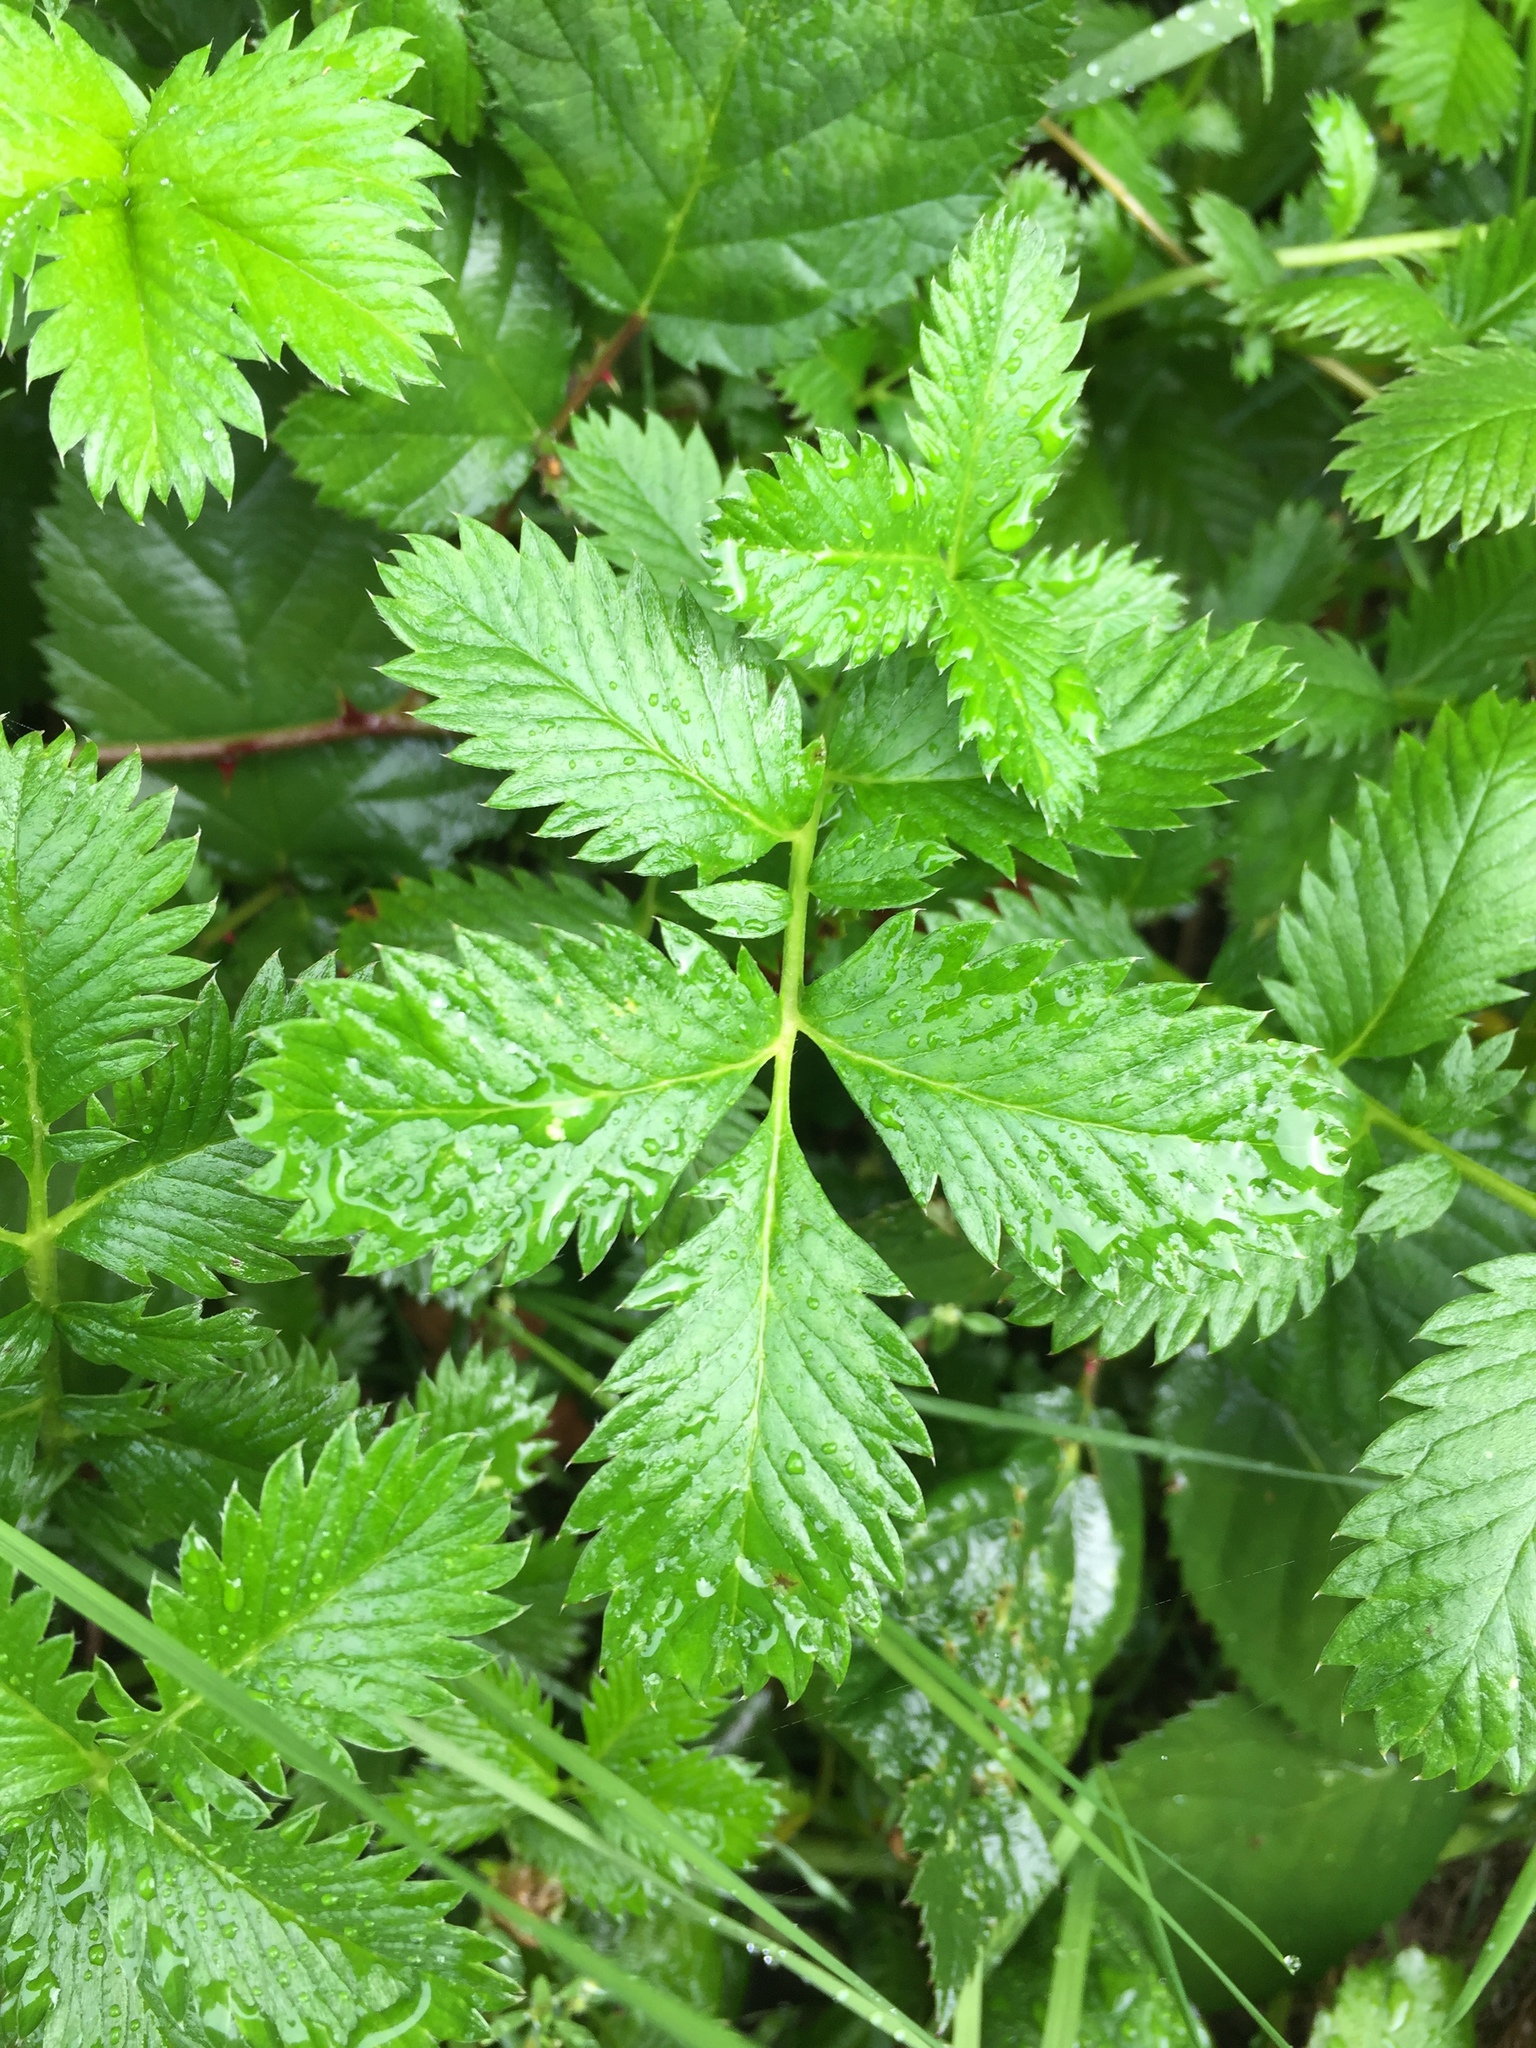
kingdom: Plantae
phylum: Tracheophyta
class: Magnoliopsida
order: Rosales
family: Rosaceae
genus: Argentina
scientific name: Argentina anserina
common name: Common silverweed
